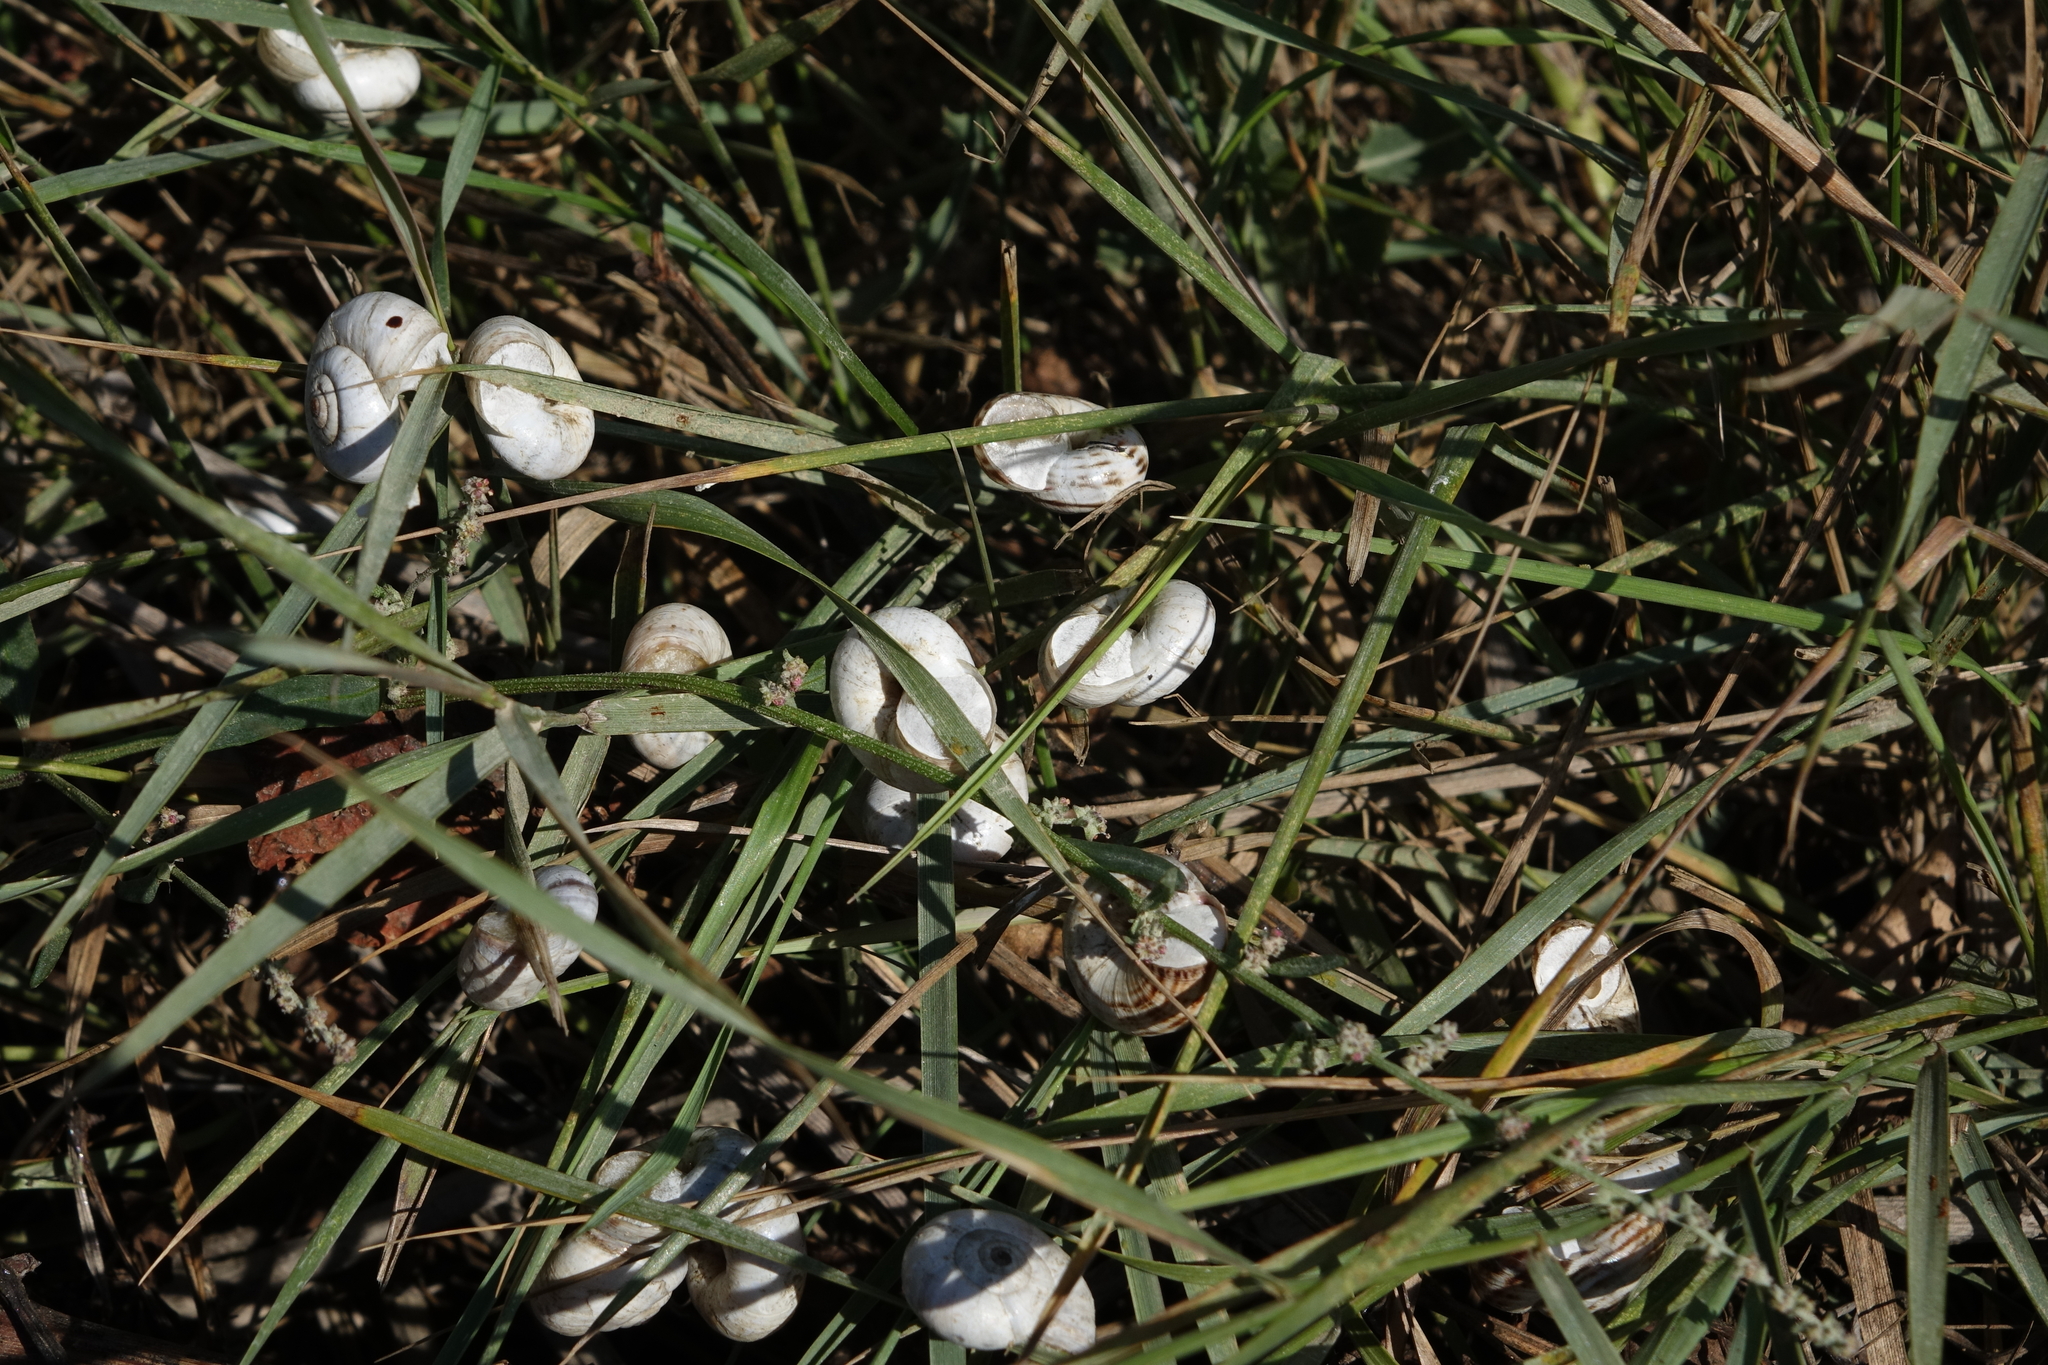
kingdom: Animalia
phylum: Mollusca
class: Gastropoda
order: Stylommatophora
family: Geomitridae
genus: Xeropicta
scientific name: Xeropicta derbentina
